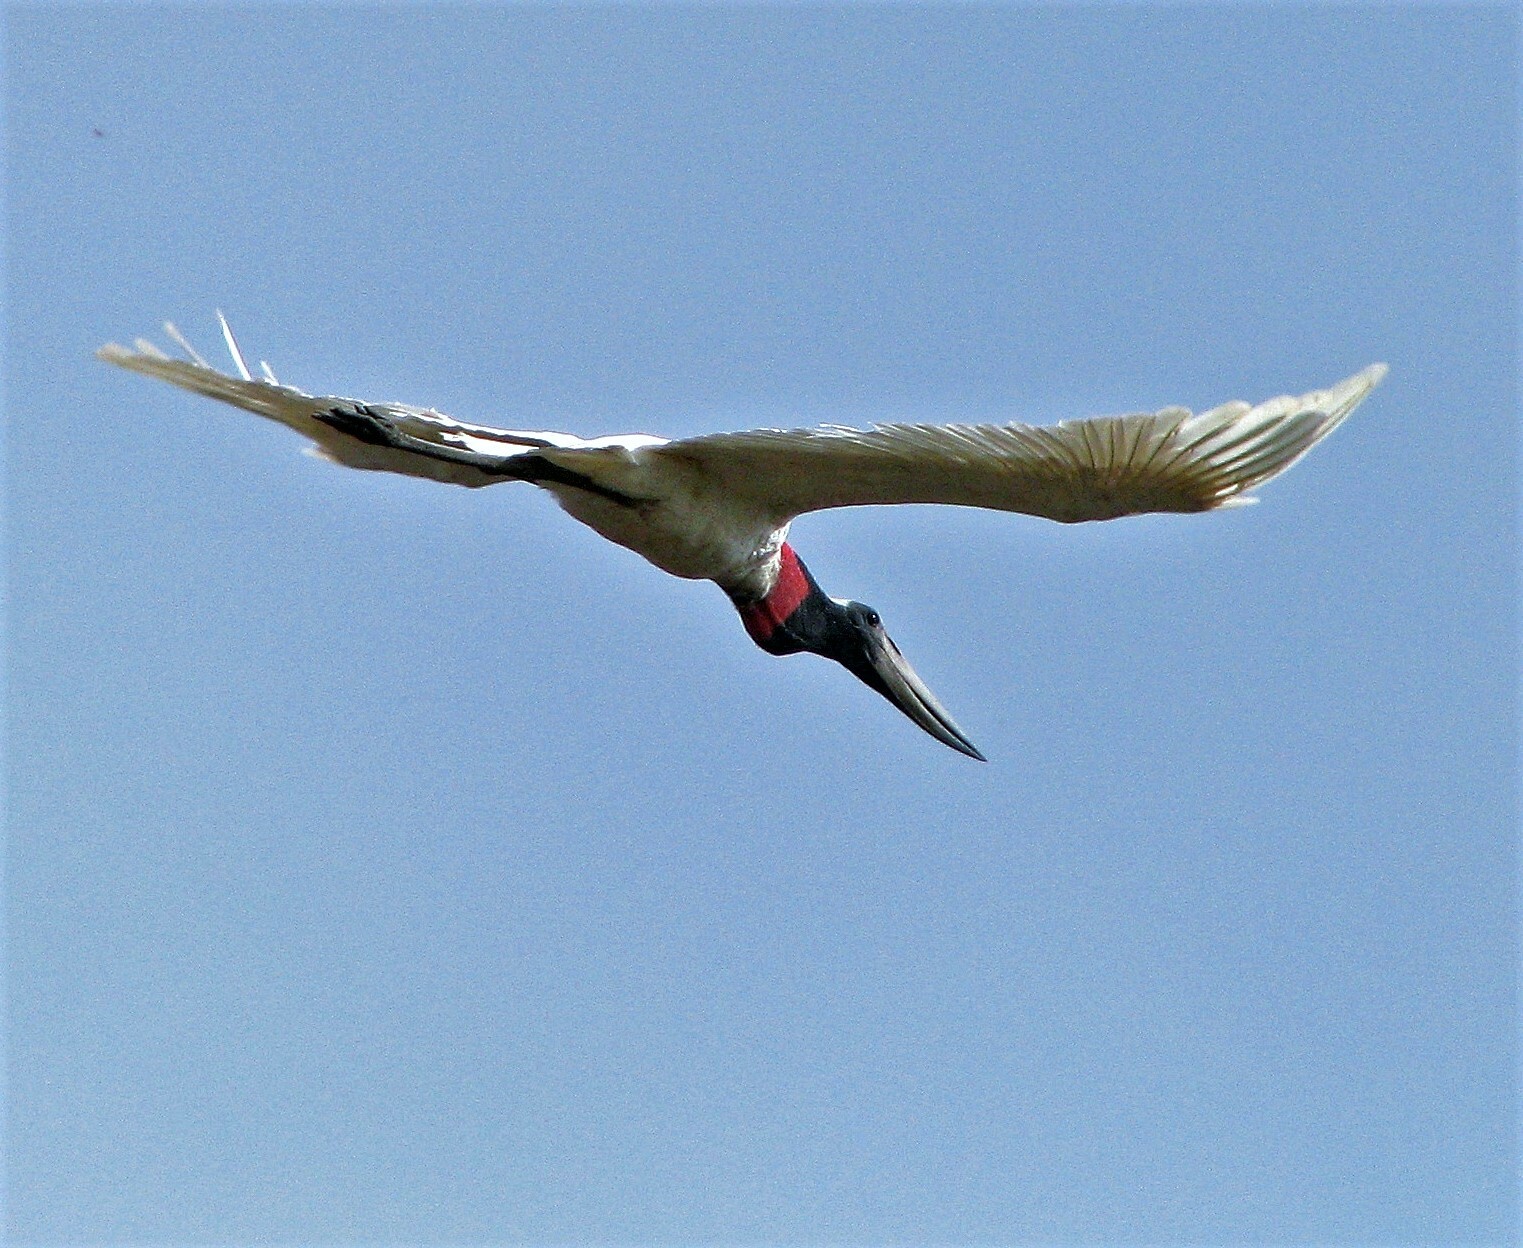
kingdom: Animalia
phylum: Chordata
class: Aves
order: Ciconiiformes
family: Ciconiidae
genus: Jabiru
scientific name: Jabiru mycteria
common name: Jabiru
